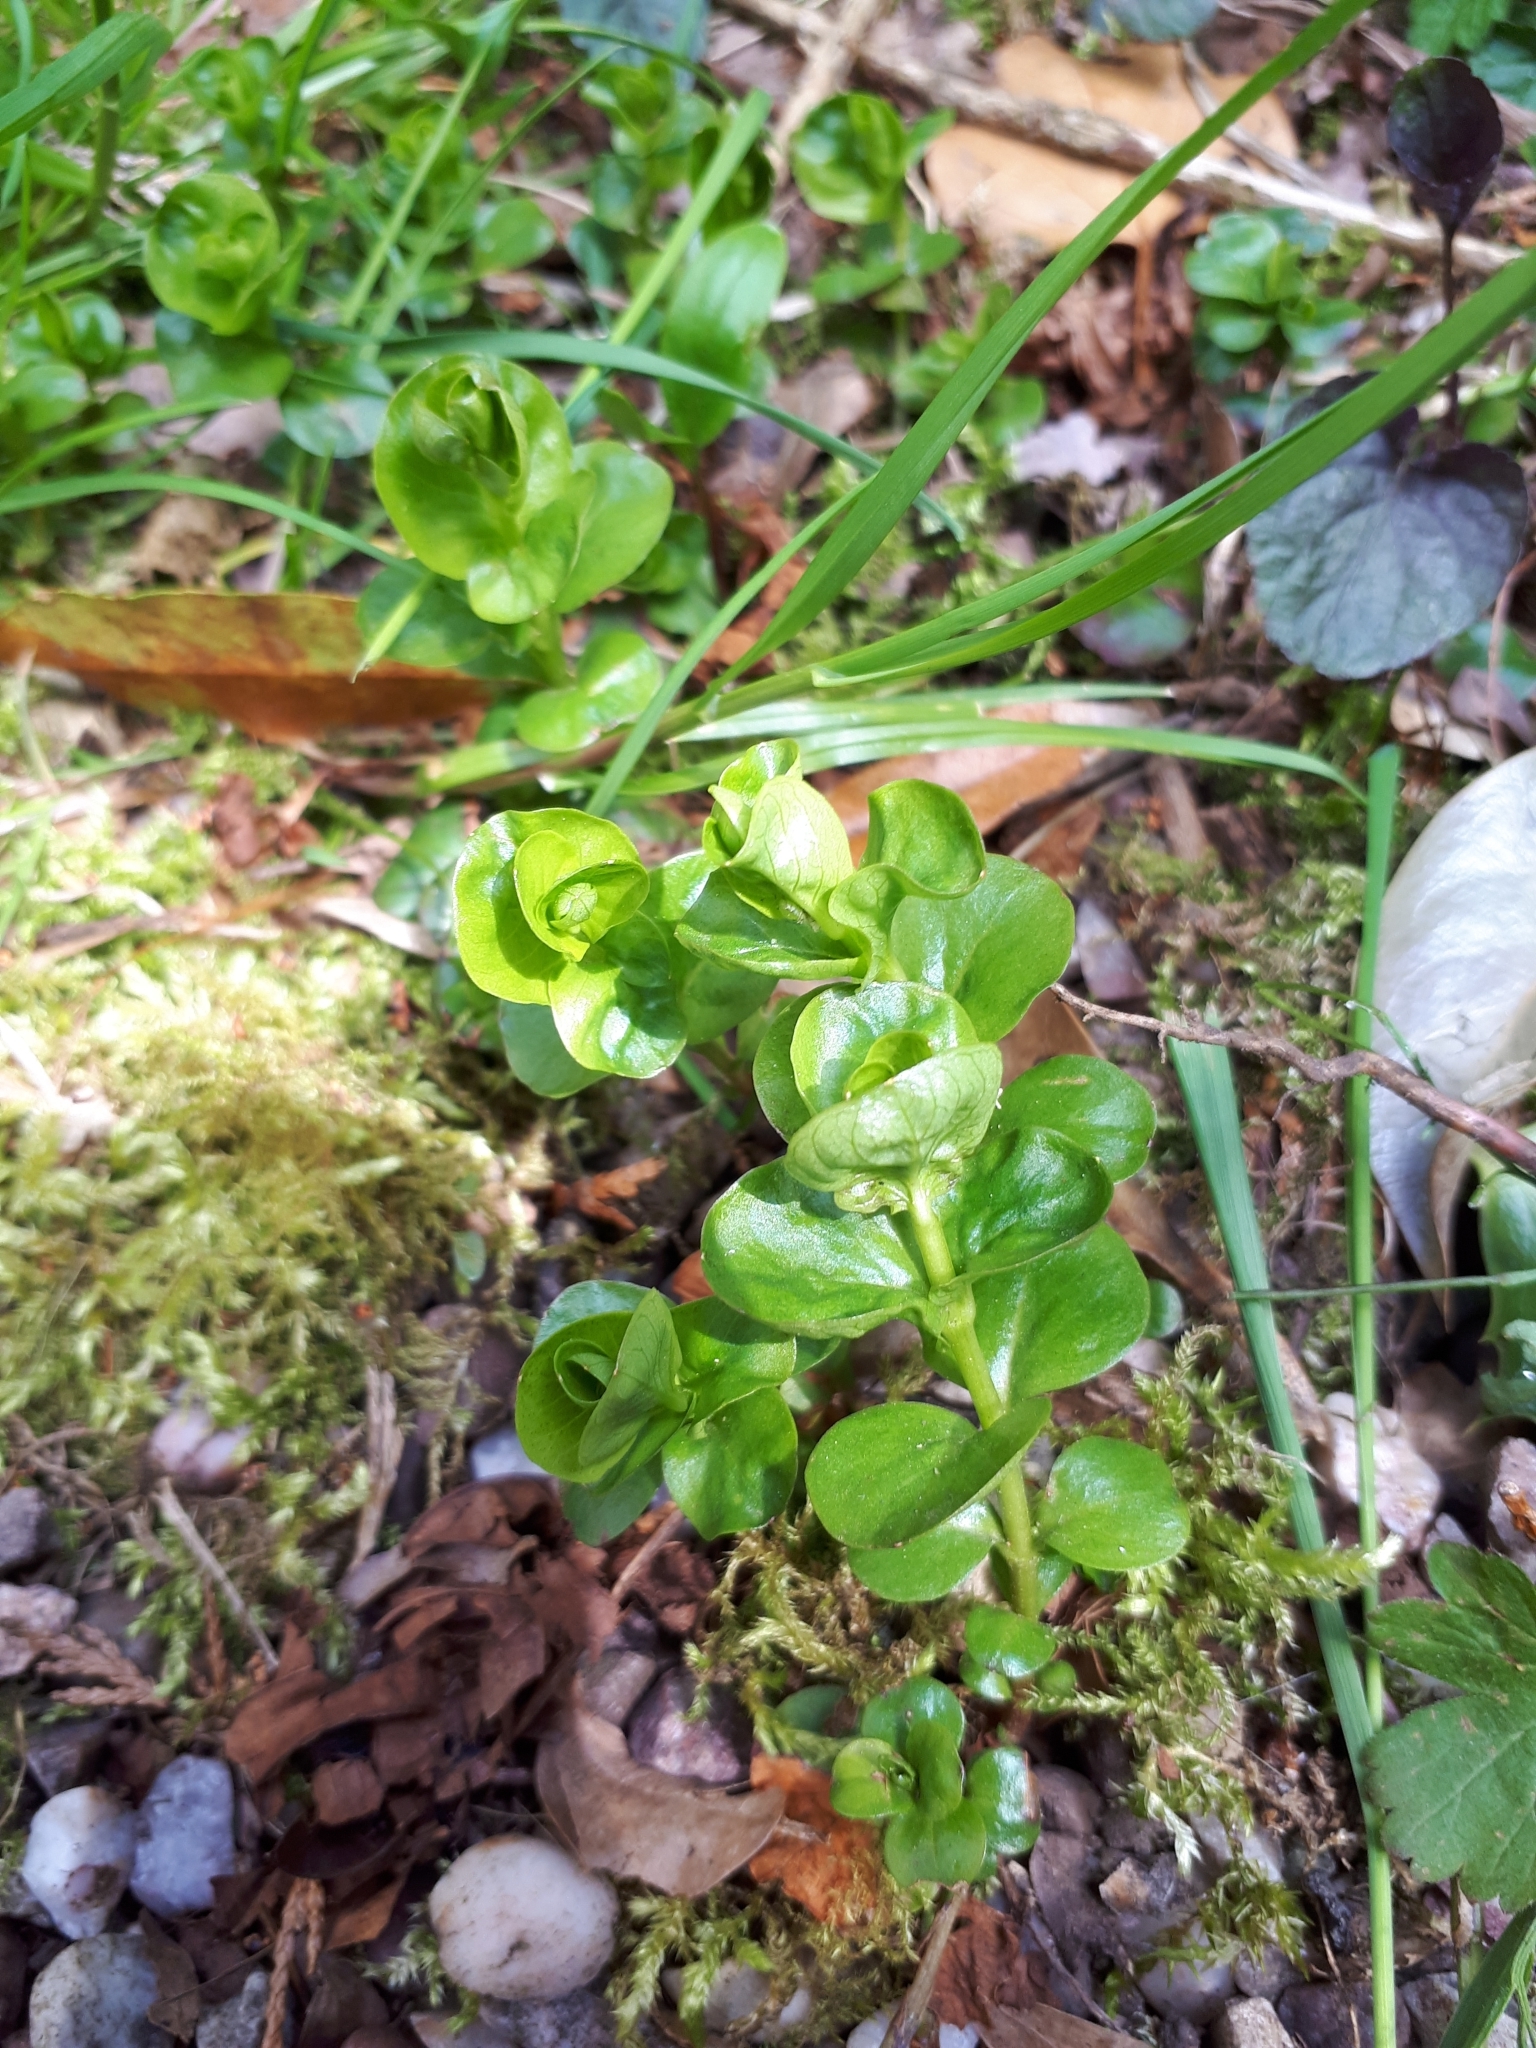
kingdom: Plantae
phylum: Tracheophyta
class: Magnoliopsida
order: Ericales
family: Primulaceae
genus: Lysimachia
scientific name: Lysimachia nummularia
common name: Moneywort
